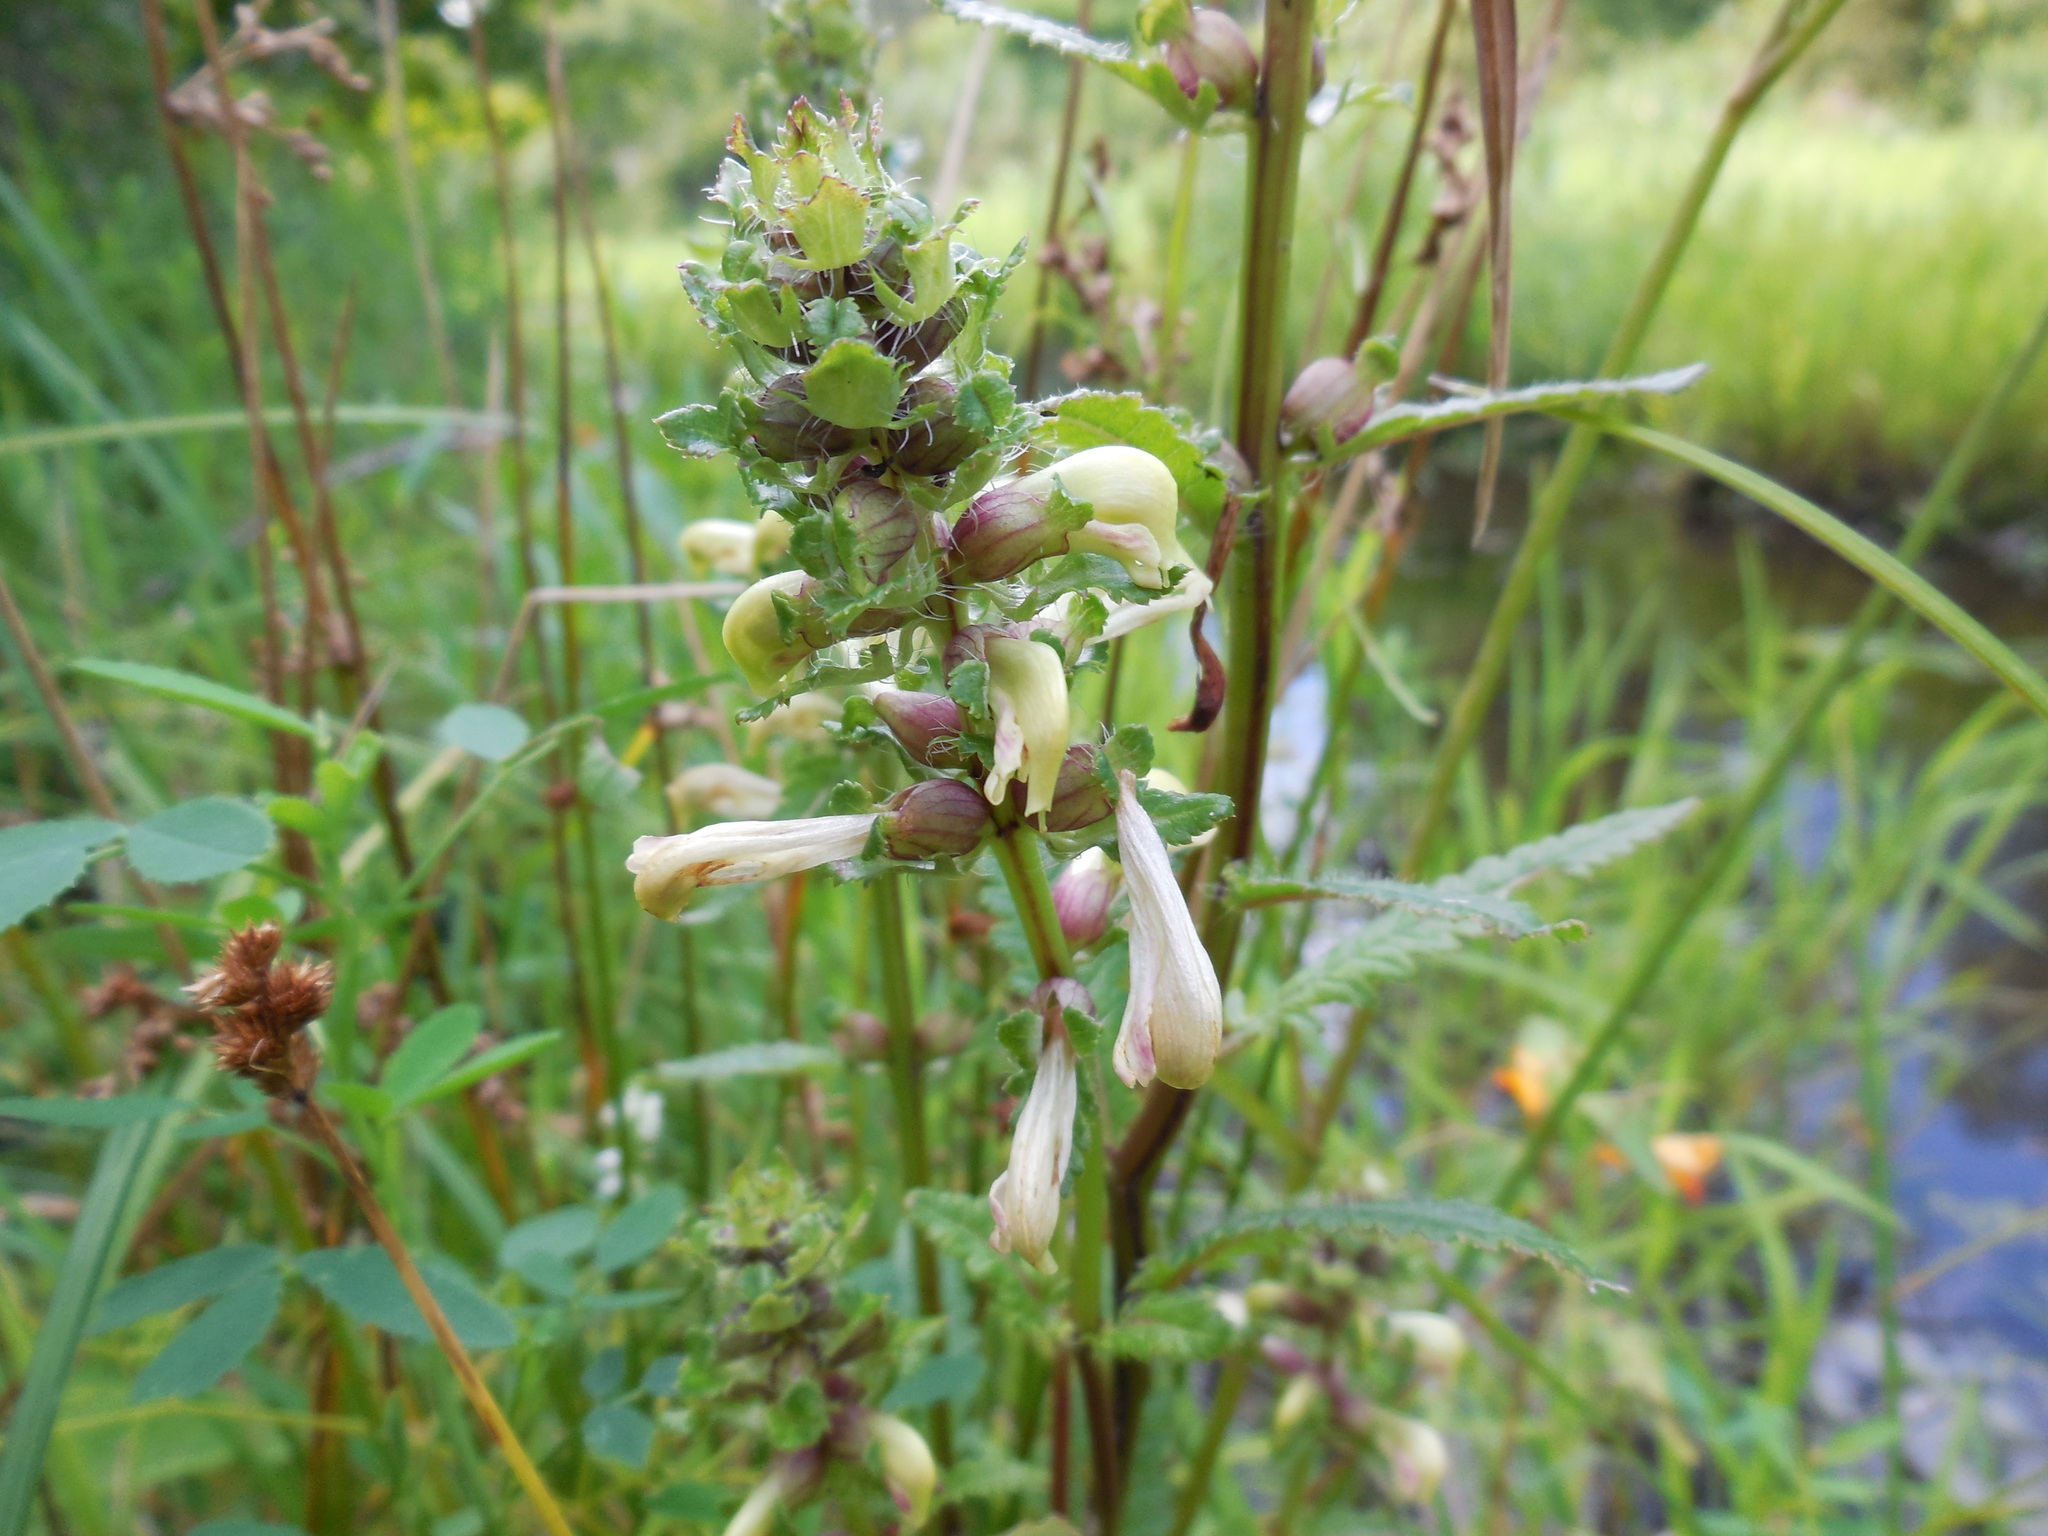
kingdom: Plantae
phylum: Tracheophyta
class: Magnoliopsida
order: Lamiales
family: Orobanchaceae
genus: Pedicularis
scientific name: Pedicularis lanceolata
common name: Swamp lousewort
